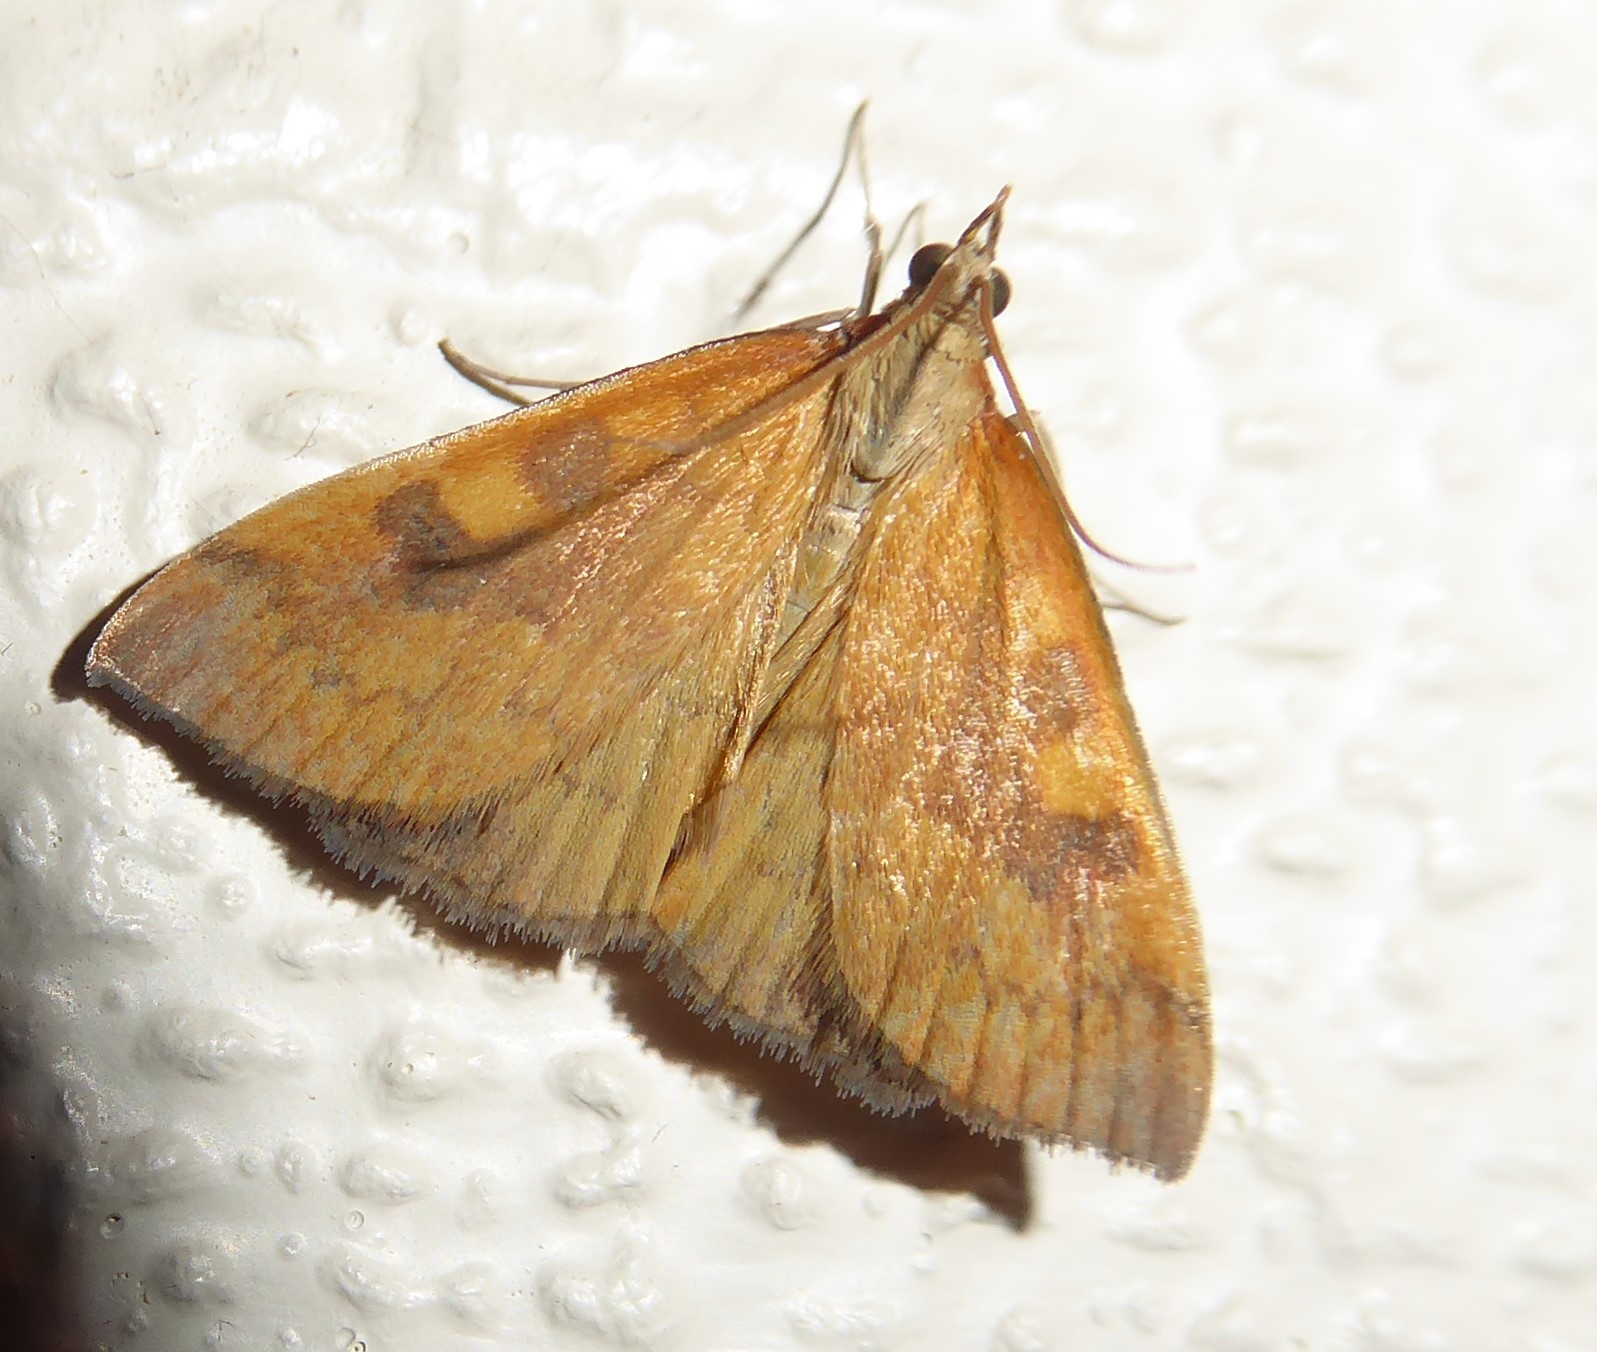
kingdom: Animalia
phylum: Arthropoda
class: Insecta
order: Lepidoptera
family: Crambidae
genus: Udea
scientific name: Udea Mnesictena flavidalis
